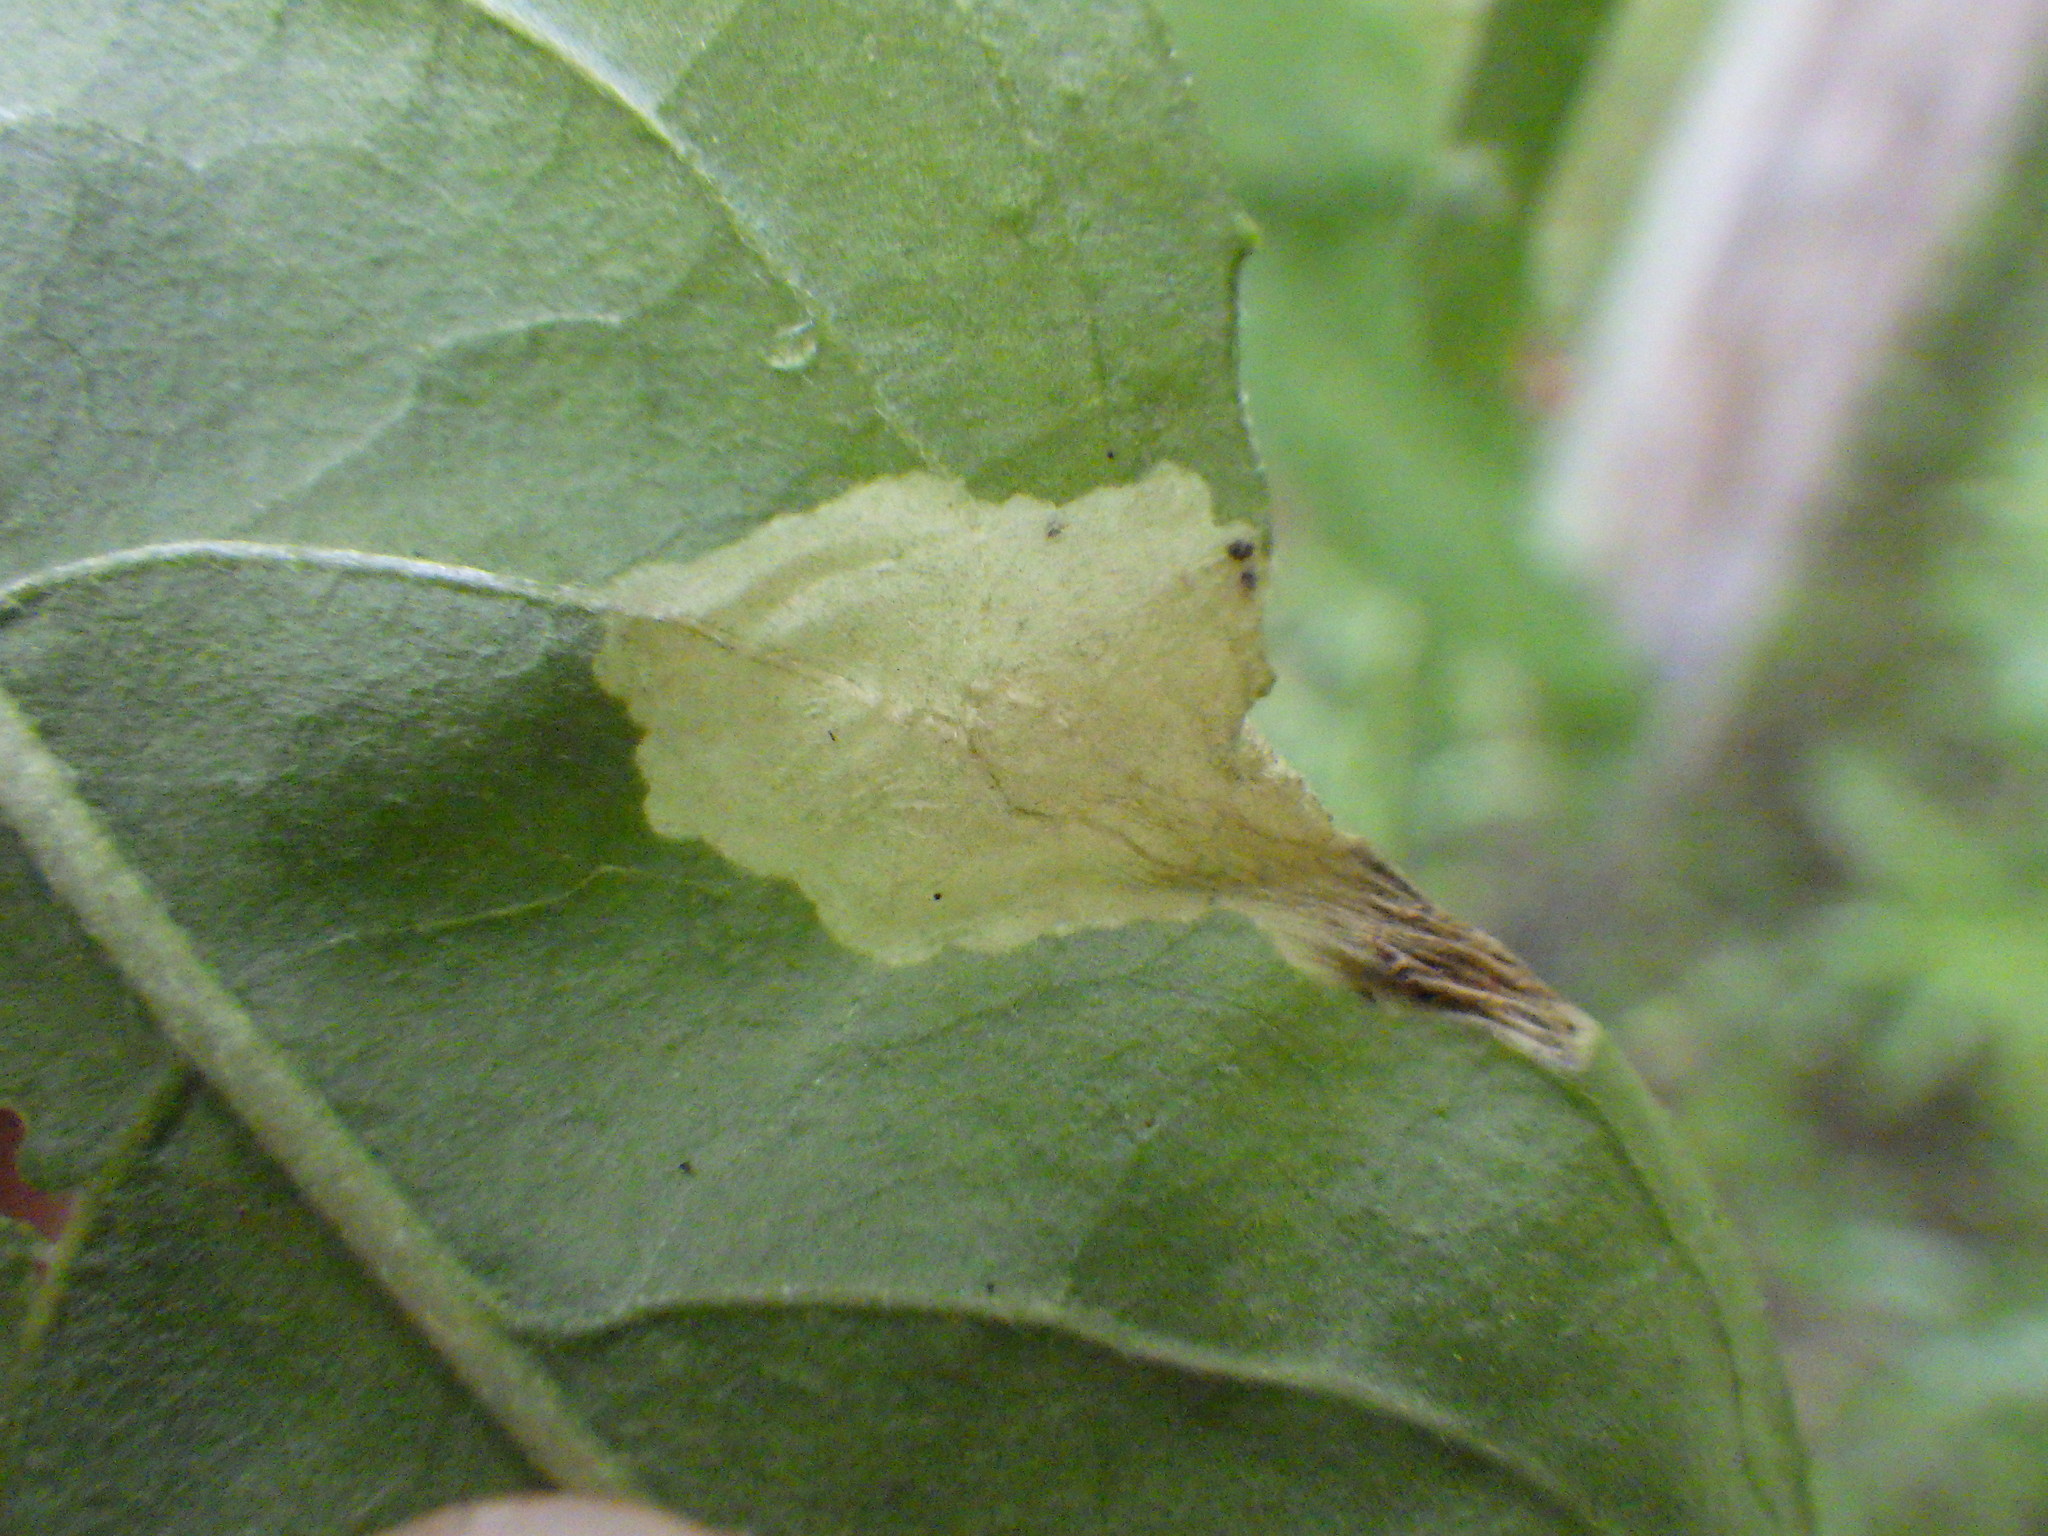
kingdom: Animalia
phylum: Arthropoda
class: Insecta
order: Lepidoptera
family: Gelechiidae
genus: Aristotelia
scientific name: Aristotelia isopelta
